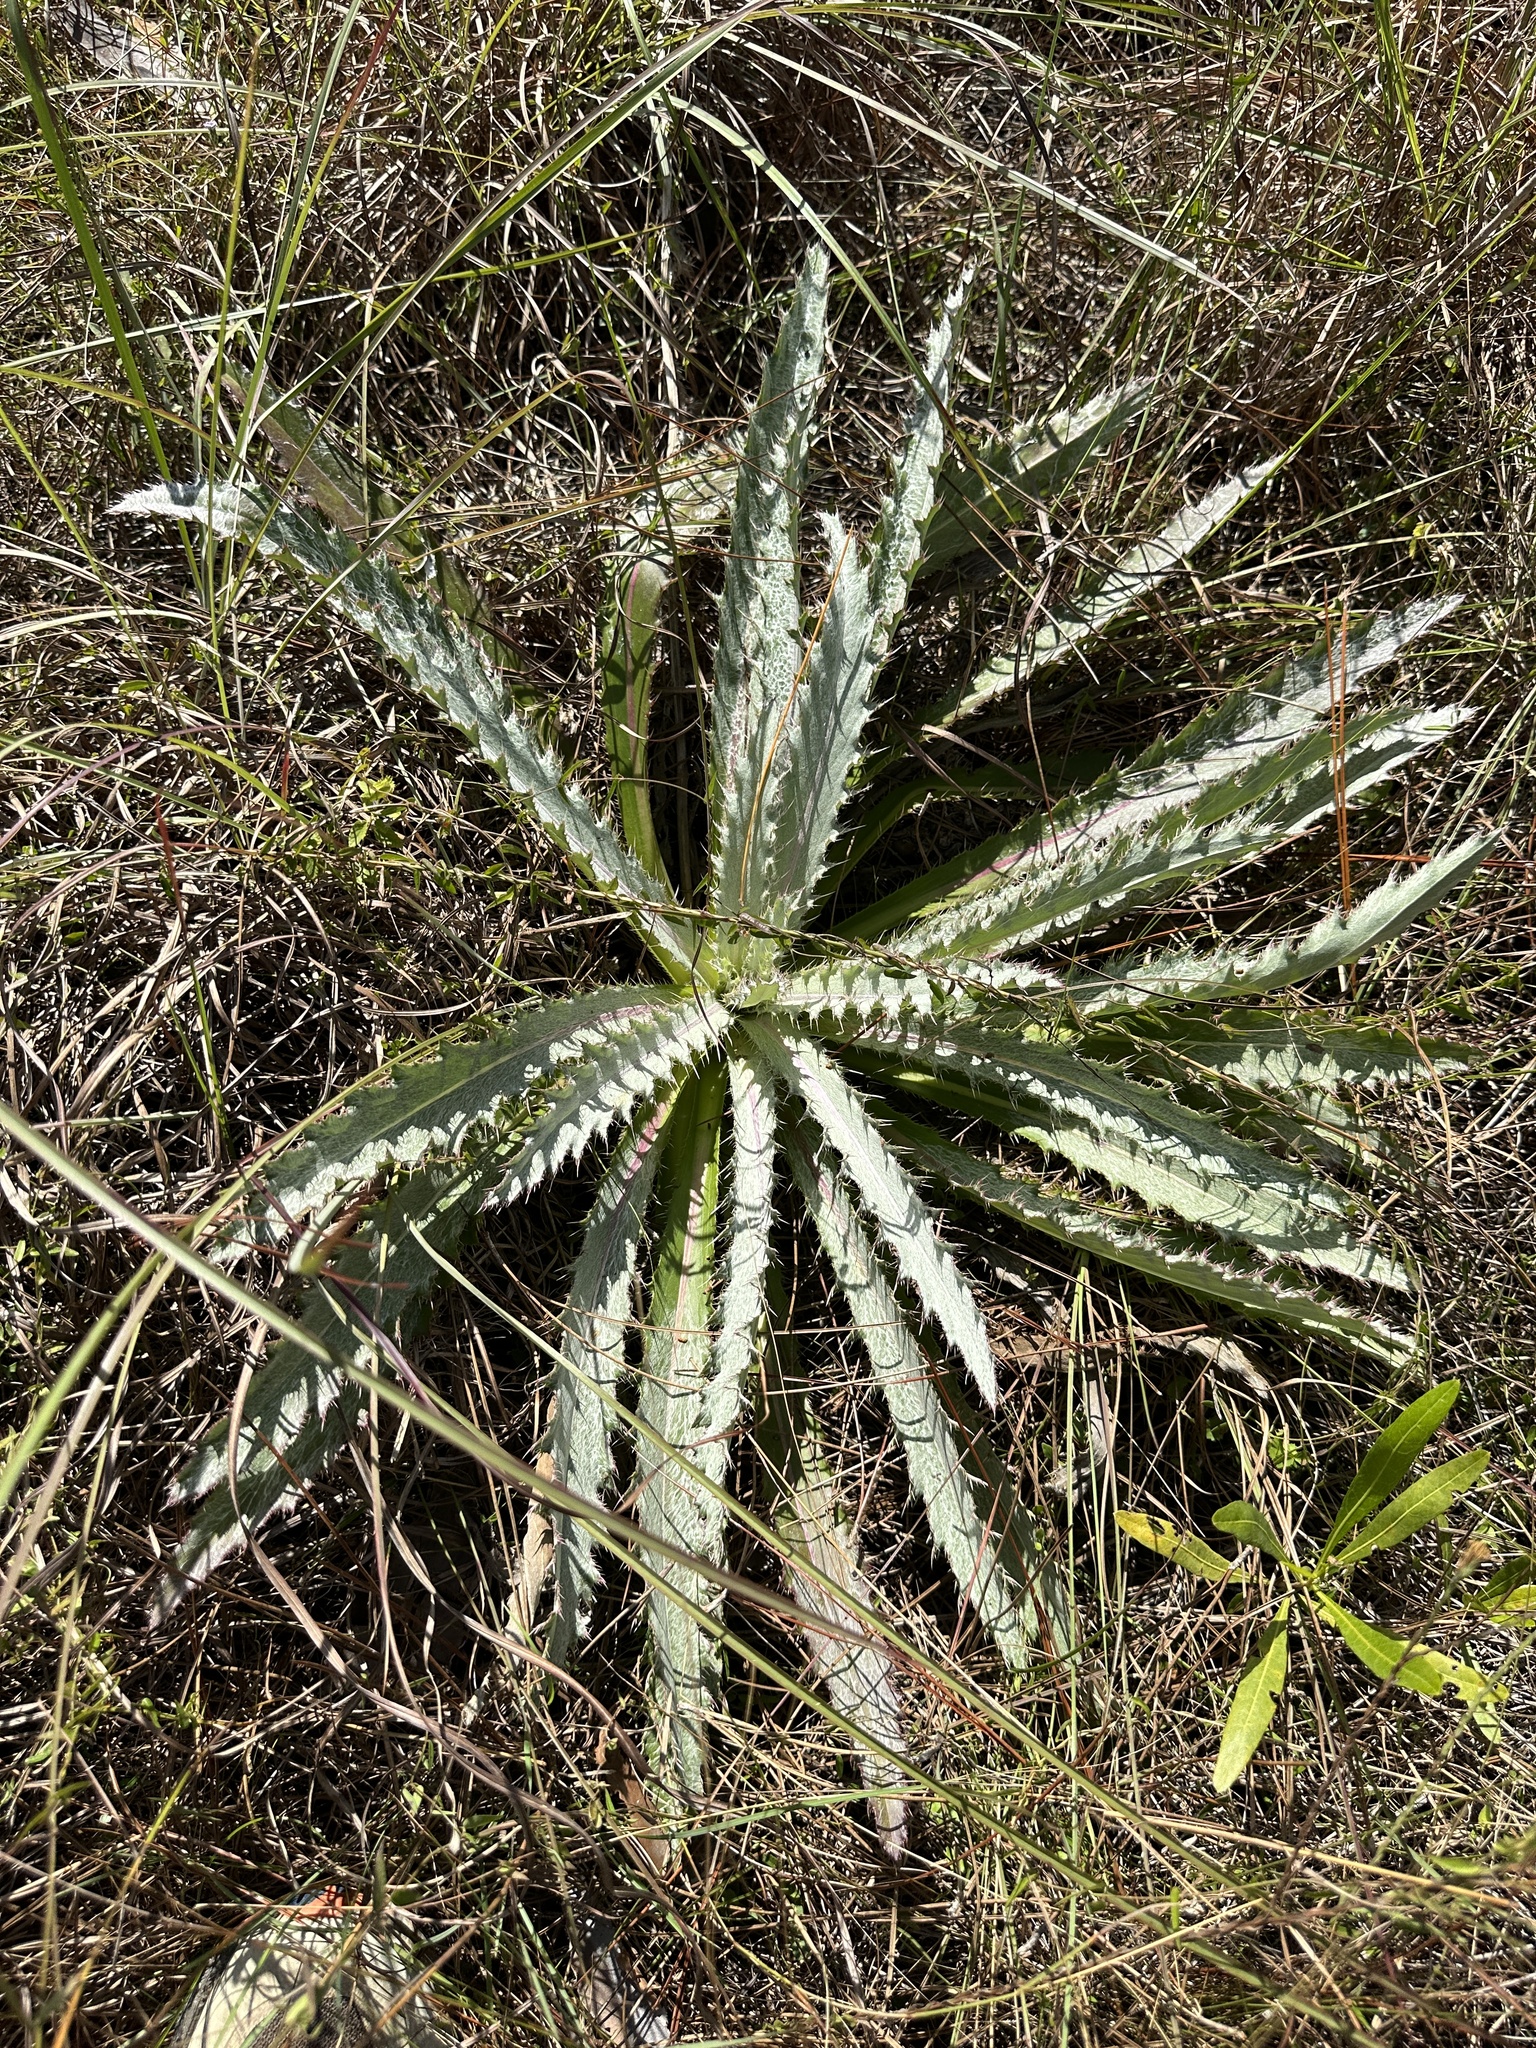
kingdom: Plantae
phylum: Tracheophyta
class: Magnoliopsida
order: Asterales
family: Asteraceae
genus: Cirsium
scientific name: Cirsium horridulum
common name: Bristly thistle
